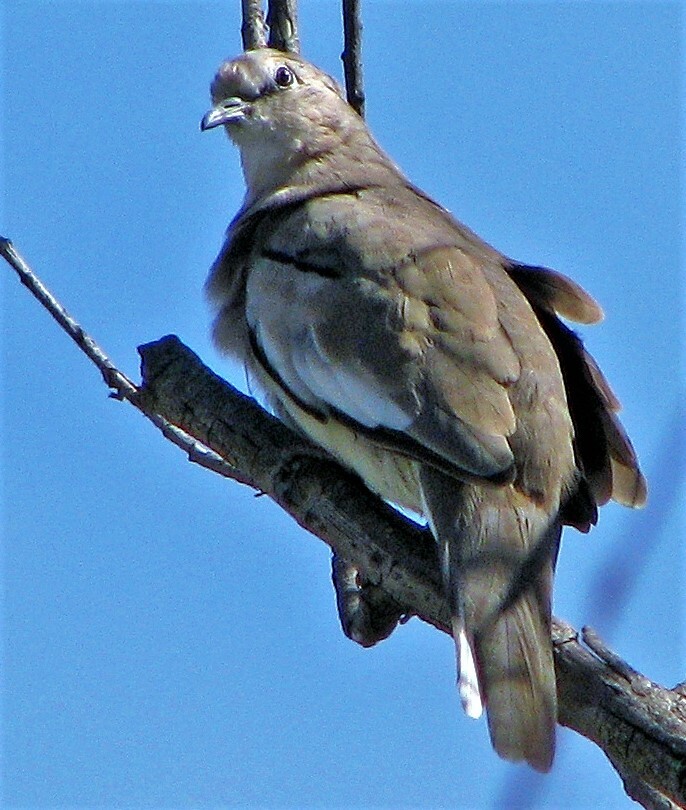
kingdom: Animalia
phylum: Chordata
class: Aves
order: Columbiformes
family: Columbidae
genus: Columbina
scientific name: Columbina picui
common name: Picui ground dove
